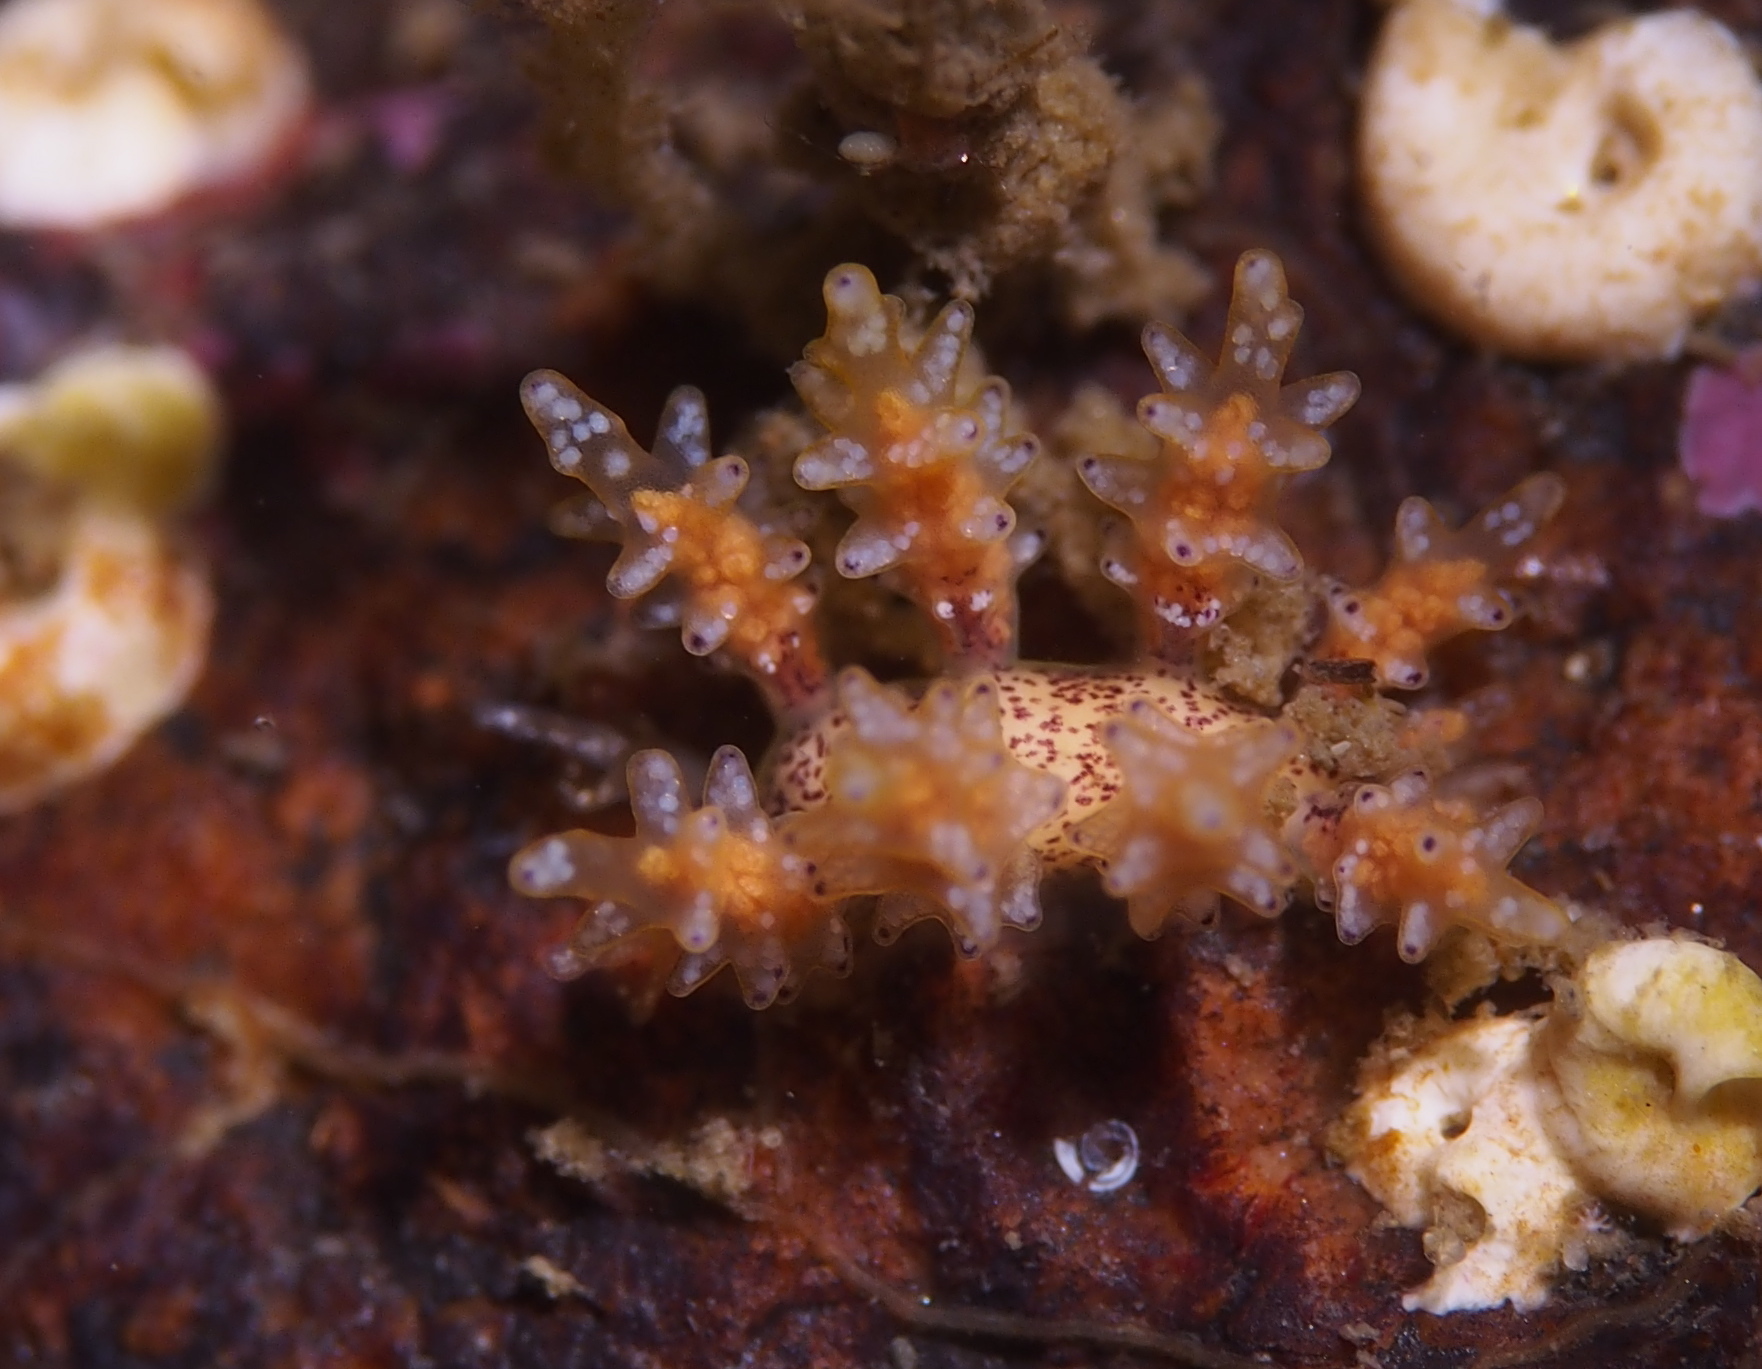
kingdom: Animalia
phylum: Mollusca
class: Gastropoda
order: Nudibranchia
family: Dotidae
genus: Doto
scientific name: Doto maculata
